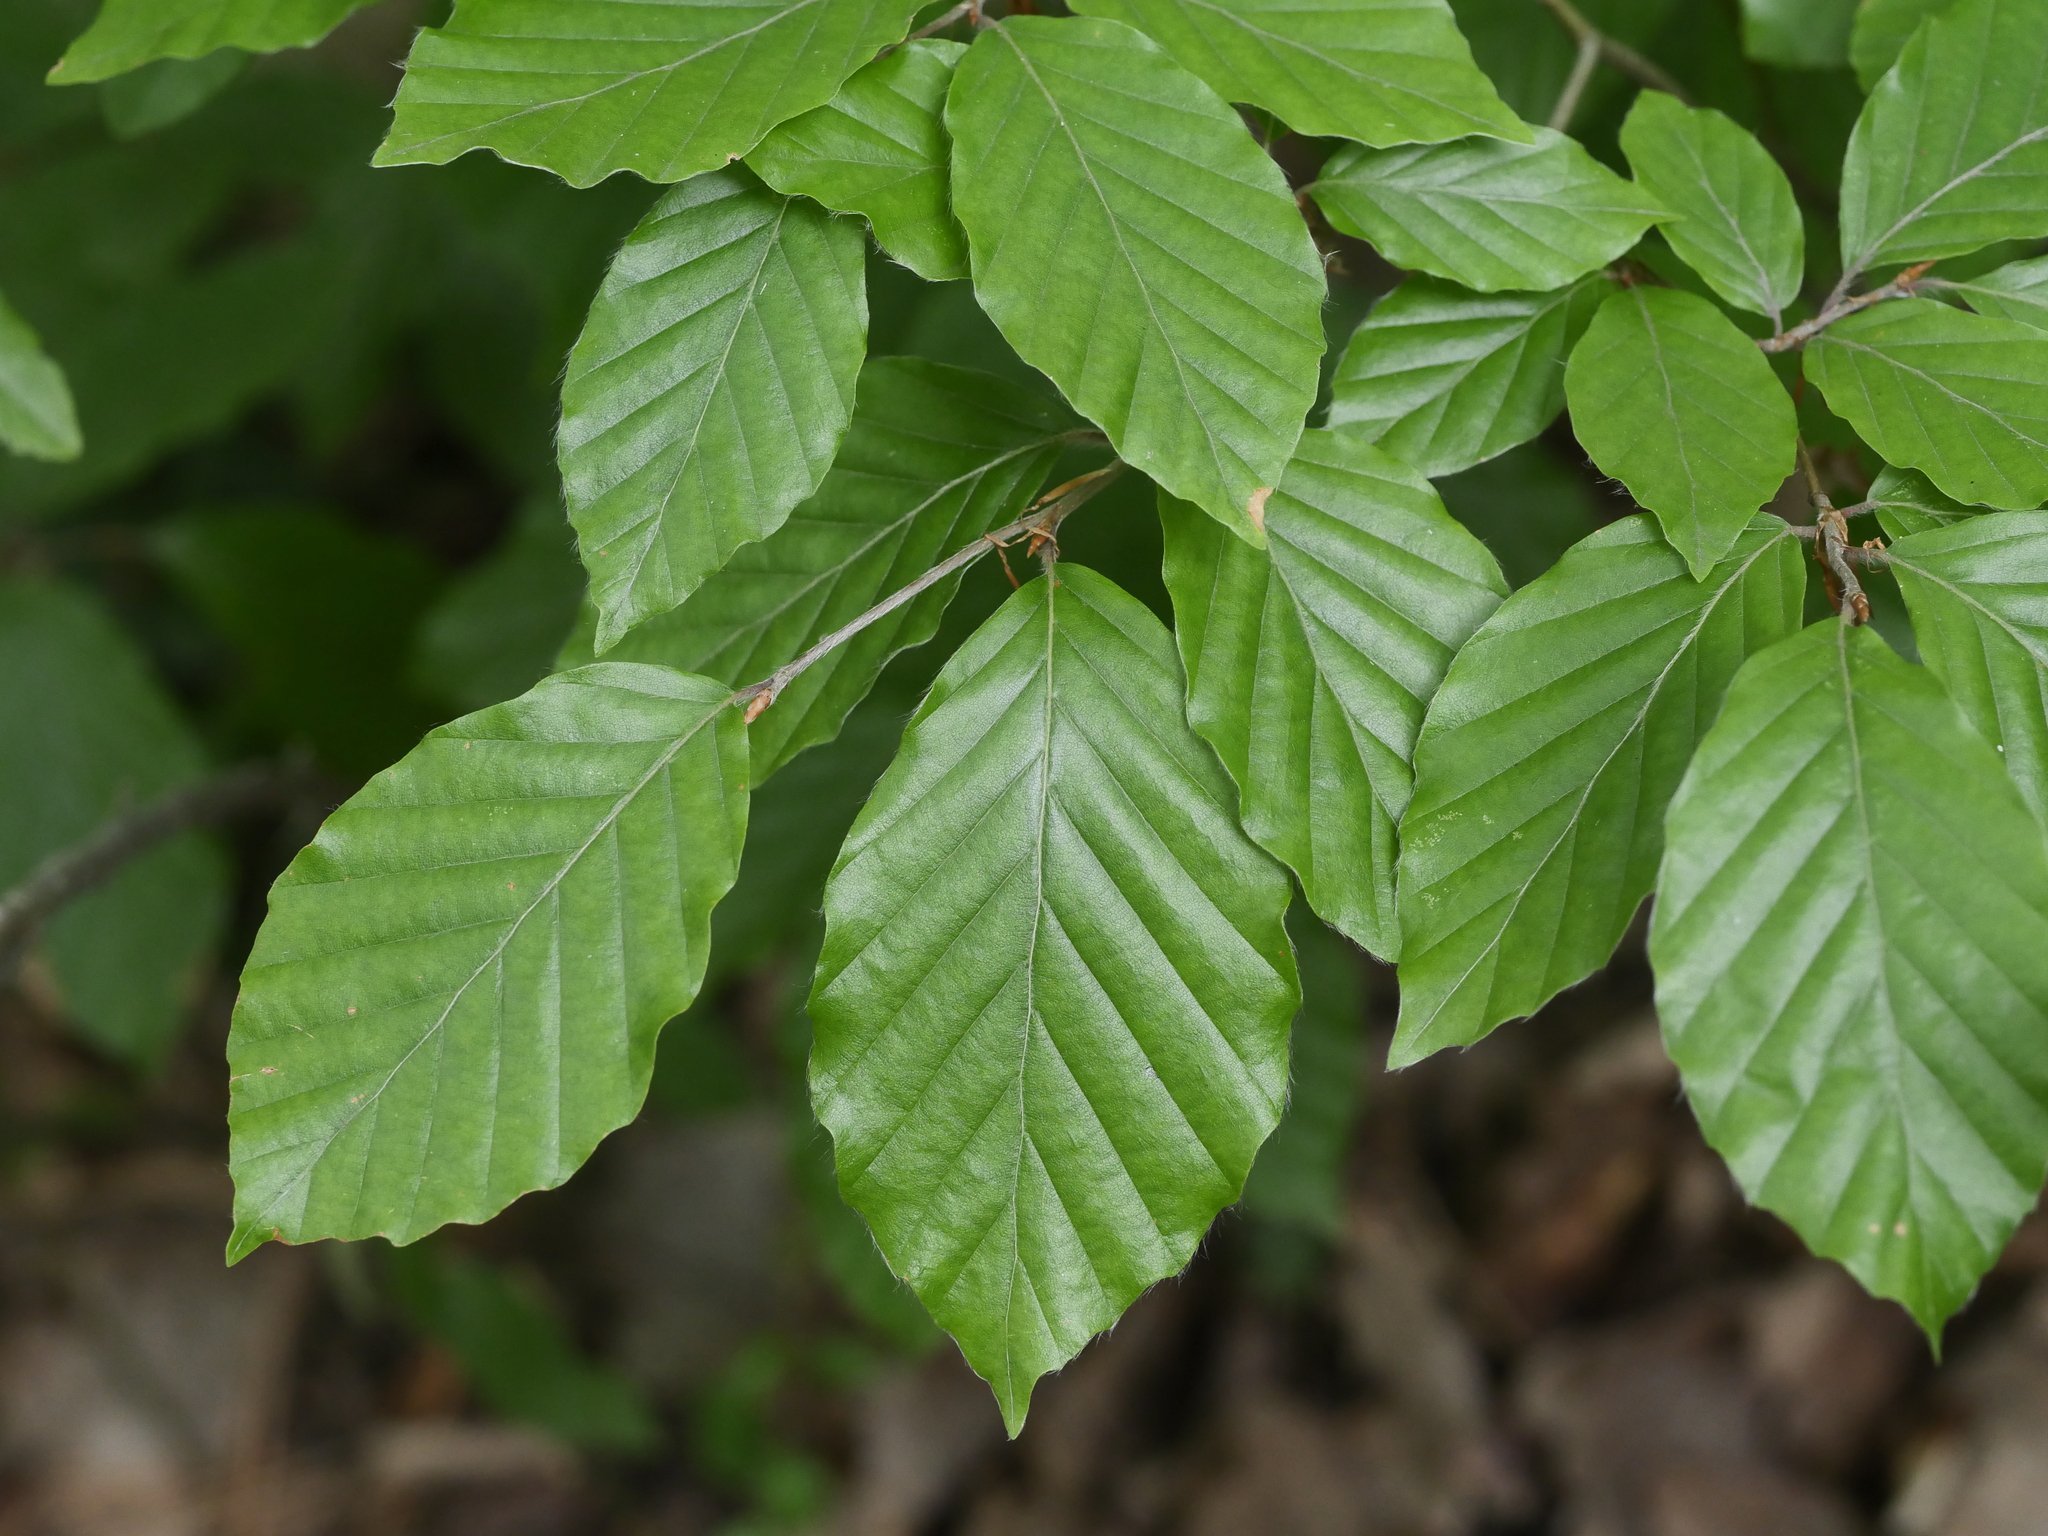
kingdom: Plantae
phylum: Tracheophyta
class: Magnoliopsida
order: Fagales
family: Fagaceae
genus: Fagus
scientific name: Fagus sylvatica
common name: Beech
